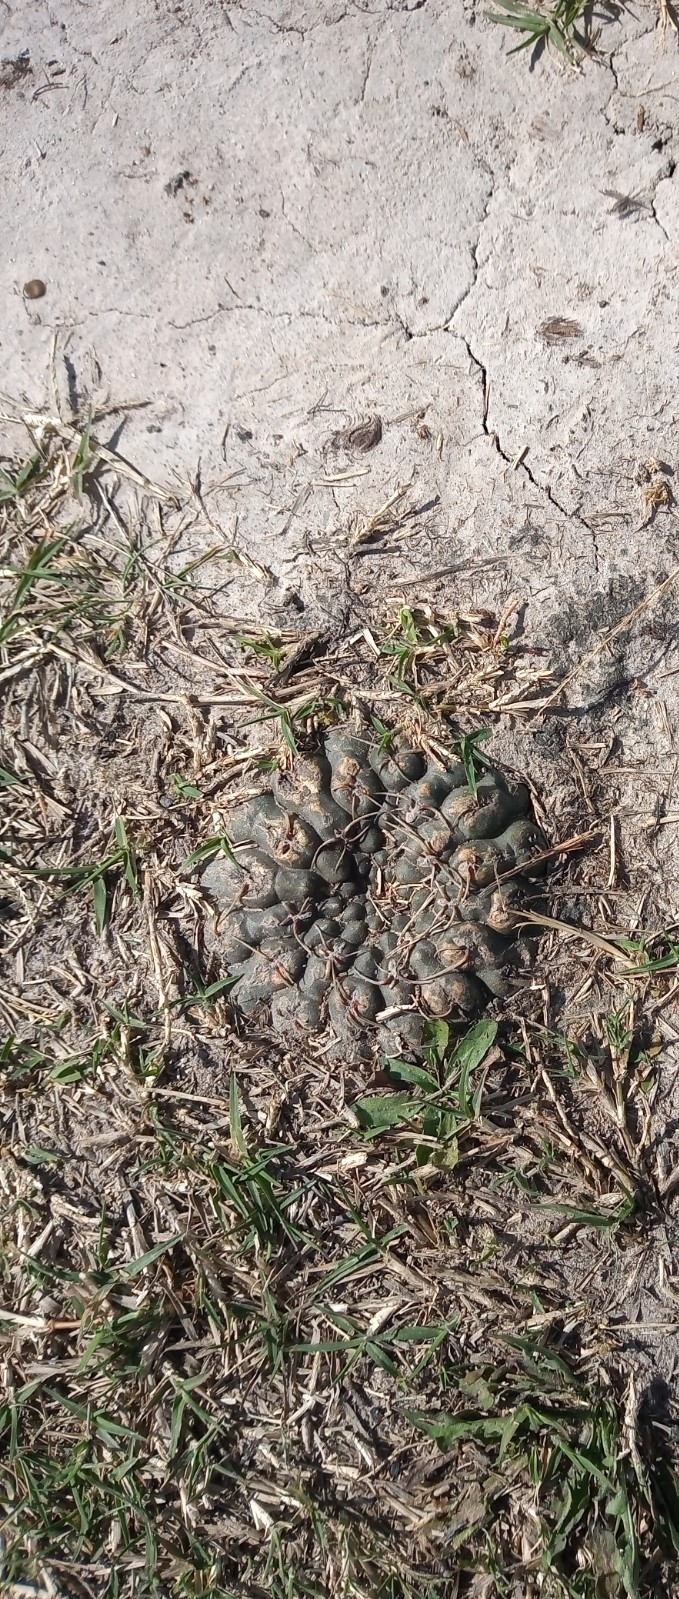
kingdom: Plantae
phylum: Tracheophyta
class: Magnoliopsida
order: Caryophyllales
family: Cactaceae
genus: Gymnocalycium
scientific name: Gymnocalycium schroederianum
